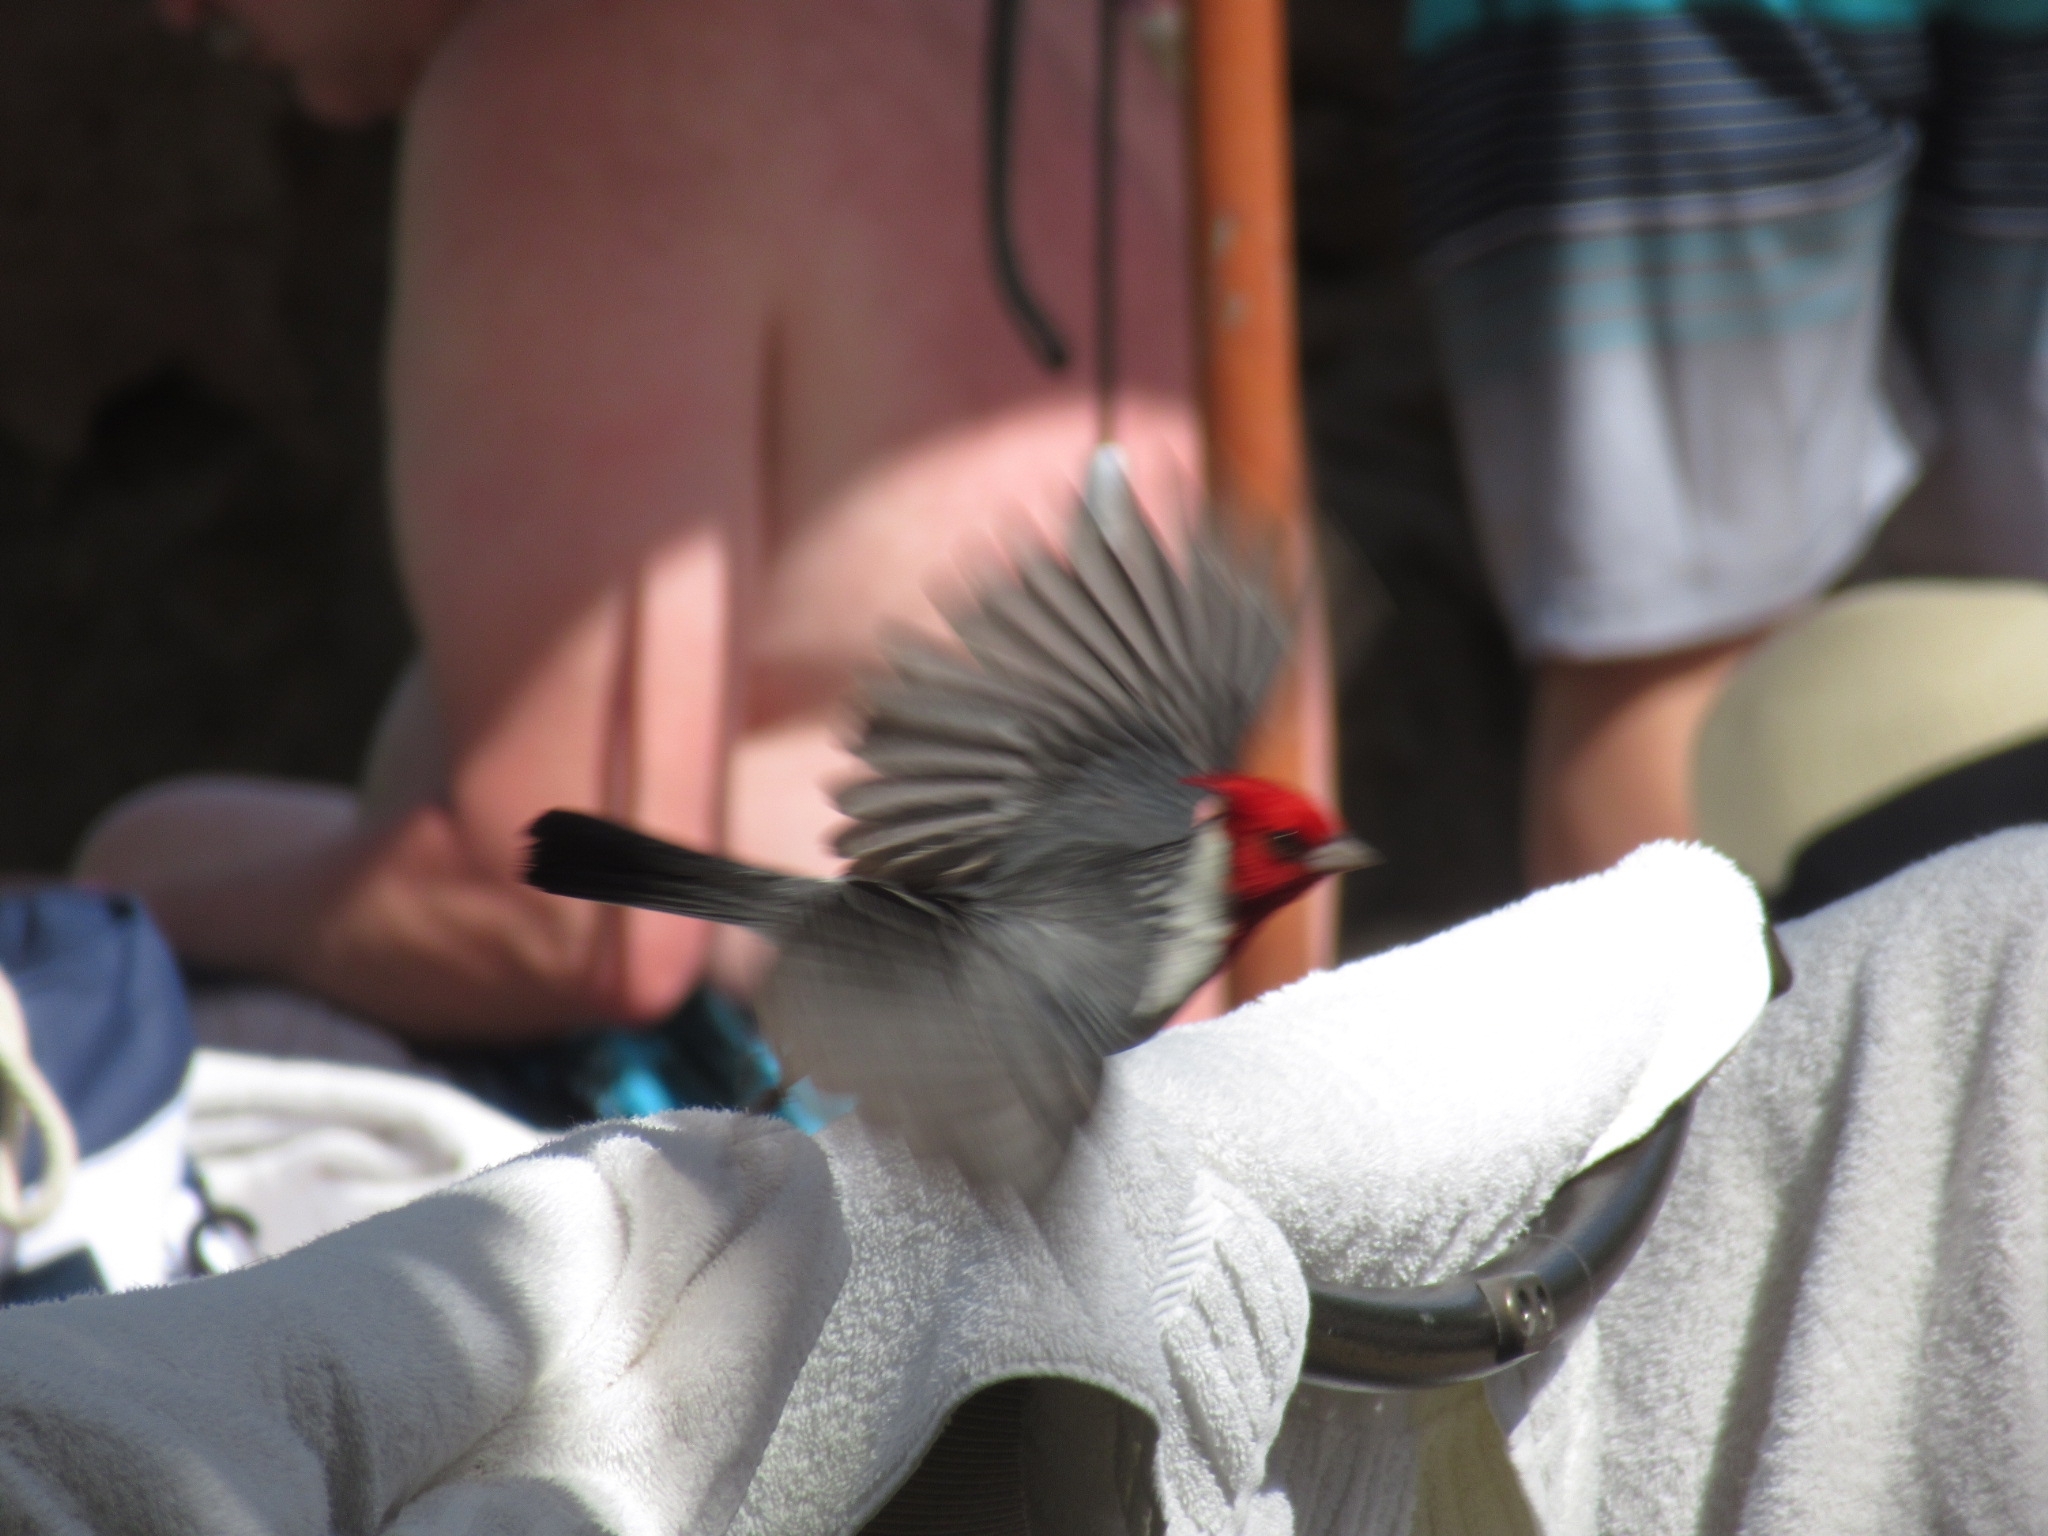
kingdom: Animalia
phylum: Chordata
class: Aves
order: Passeriformes
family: Thraupidae
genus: Paroaria
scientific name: Paroaria coronata
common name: Red-crested cardinal
